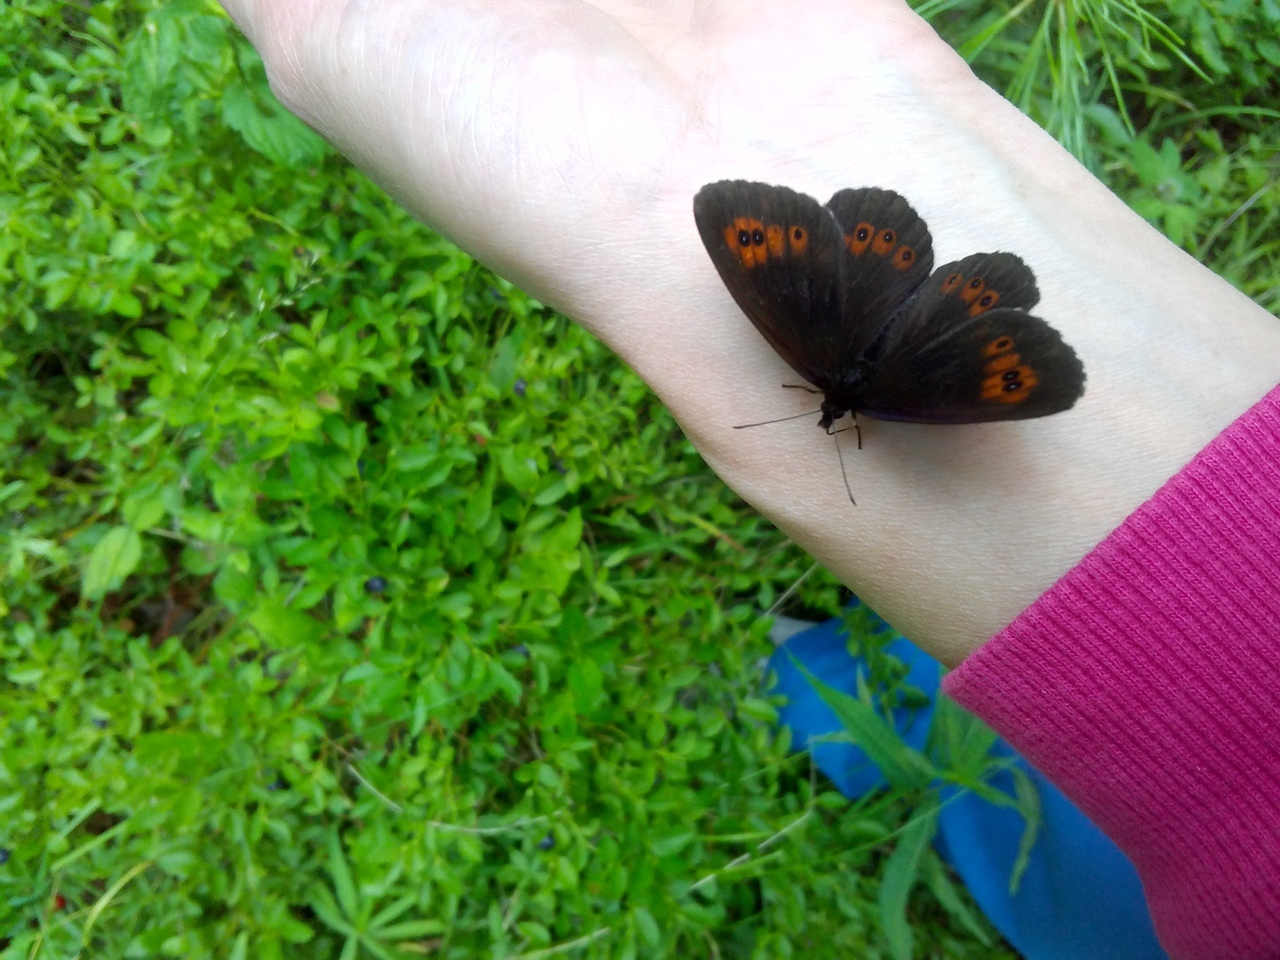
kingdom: Animalia
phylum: Arthropoda
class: Insecta
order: Lepidoptera
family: Nymphalidae
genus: Erebia
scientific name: Erebia ligea
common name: Arran brown
